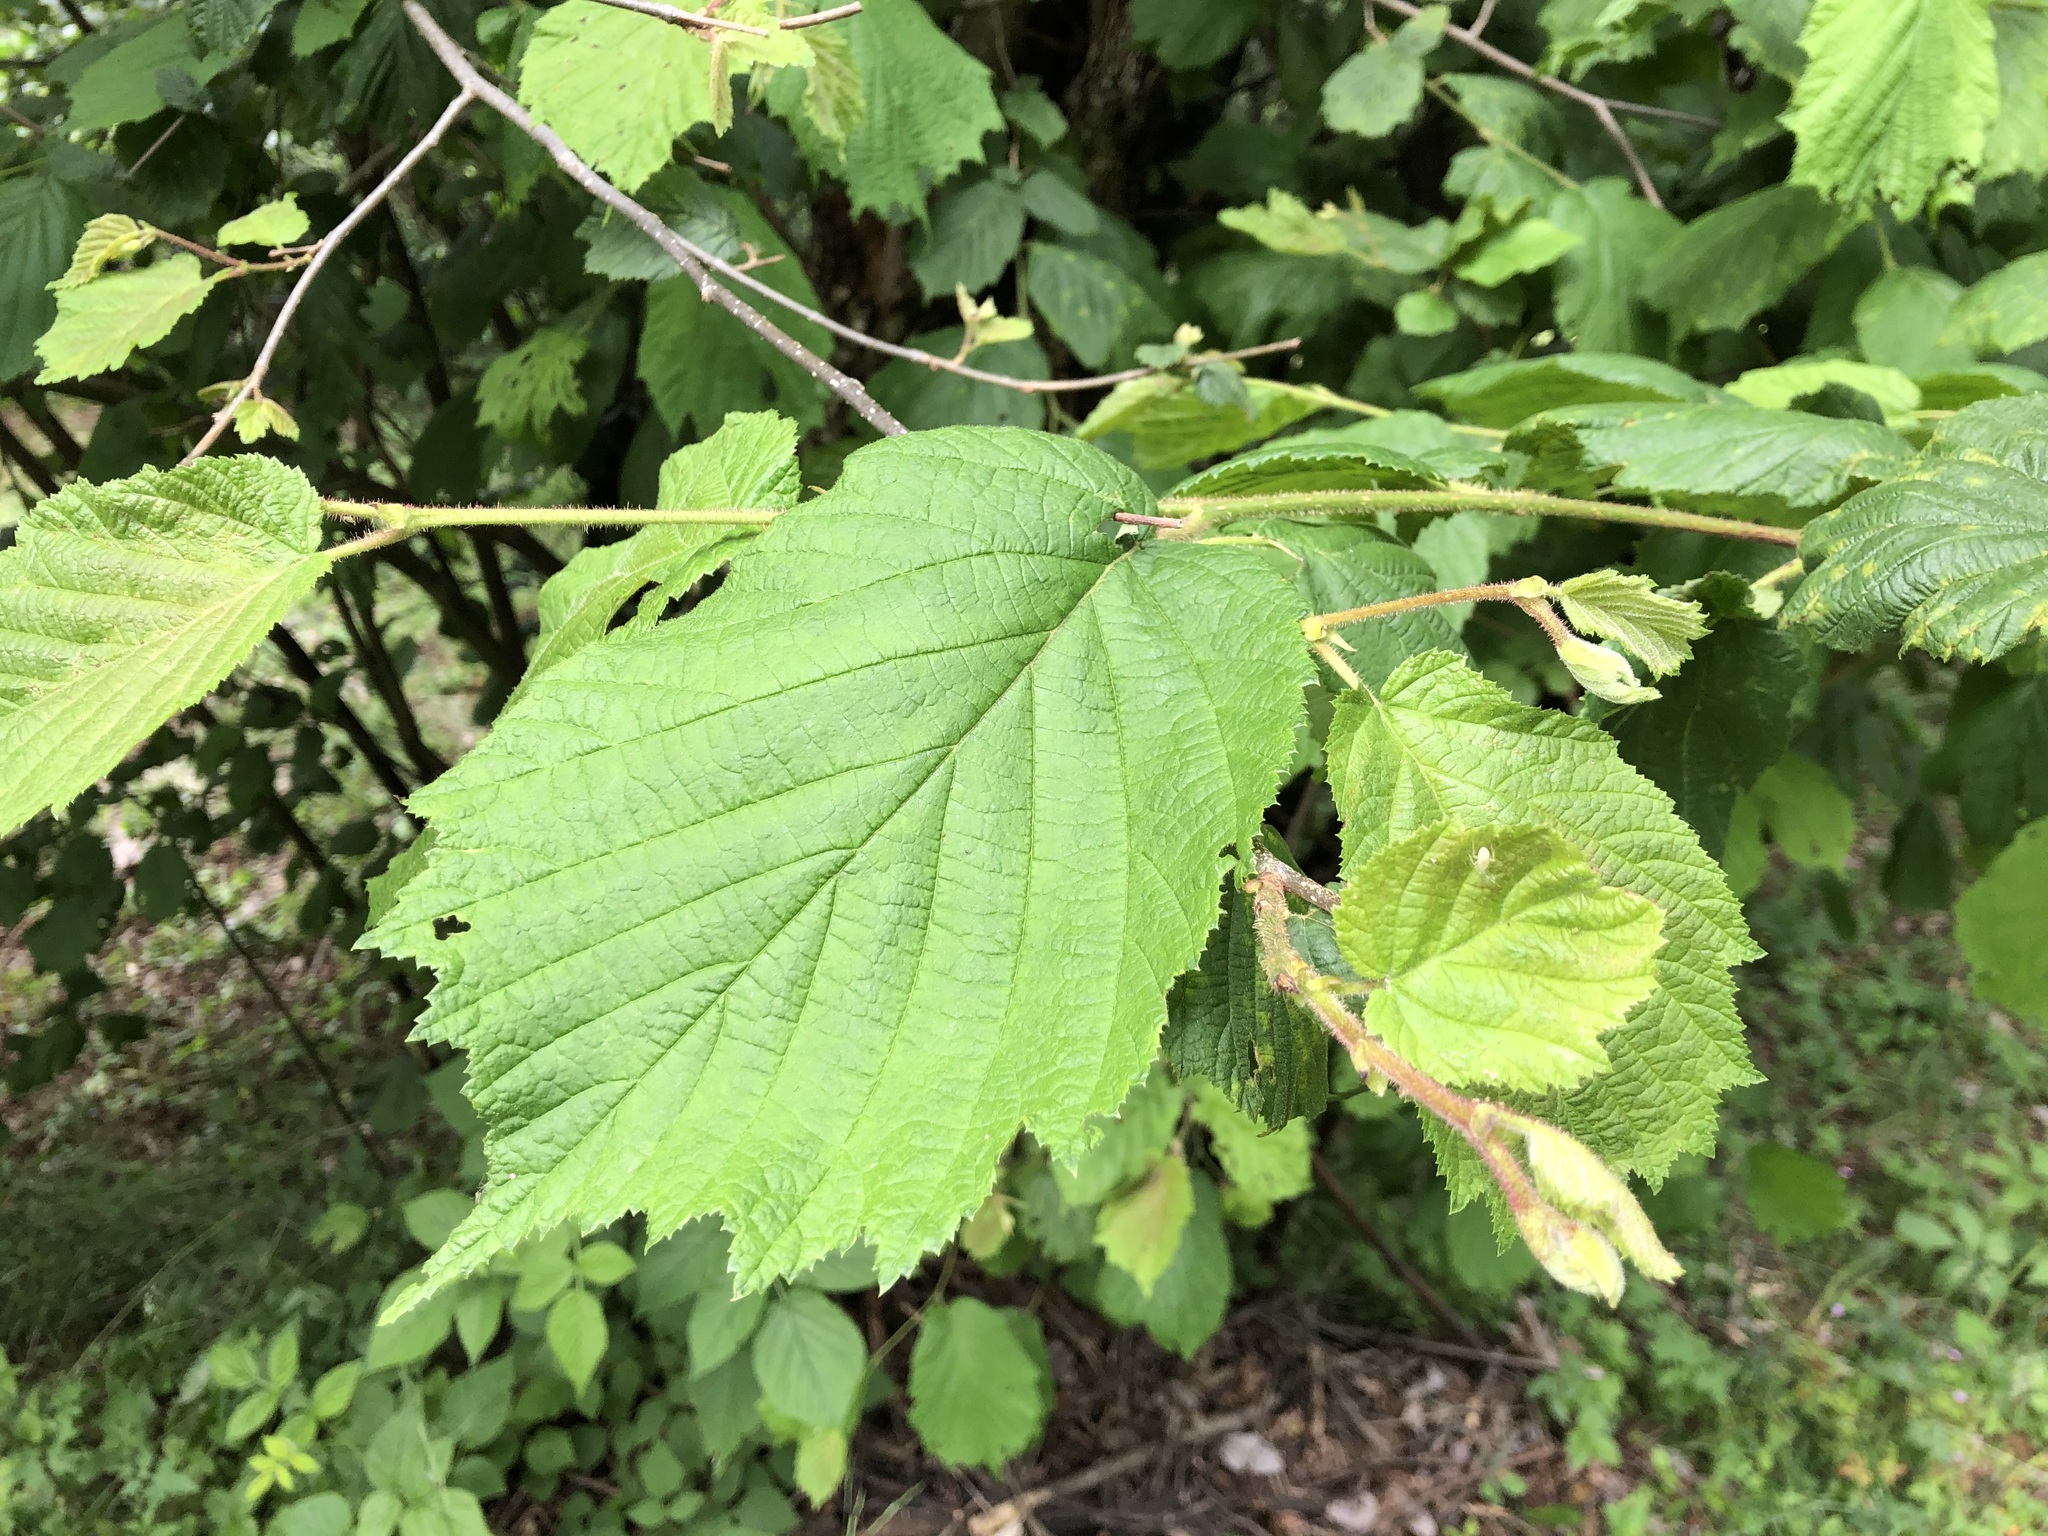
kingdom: Plantae
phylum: Tracheophyta
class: Magnoliopsida
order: Fagales
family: Betulaceae
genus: Corylus
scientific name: Corylus avellana
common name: European hazel
